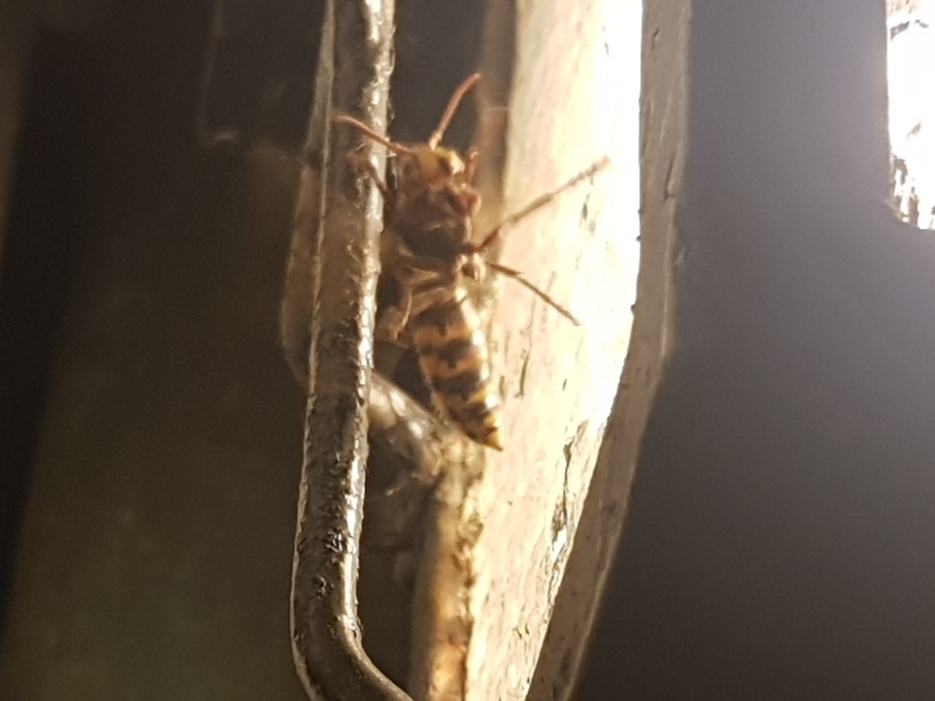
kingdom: Animalia
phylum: Arthropoda
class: Insecta
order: Hymenoptera
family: Vespidae
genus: Vespa
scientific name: Vespa crabro
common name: Hornet
